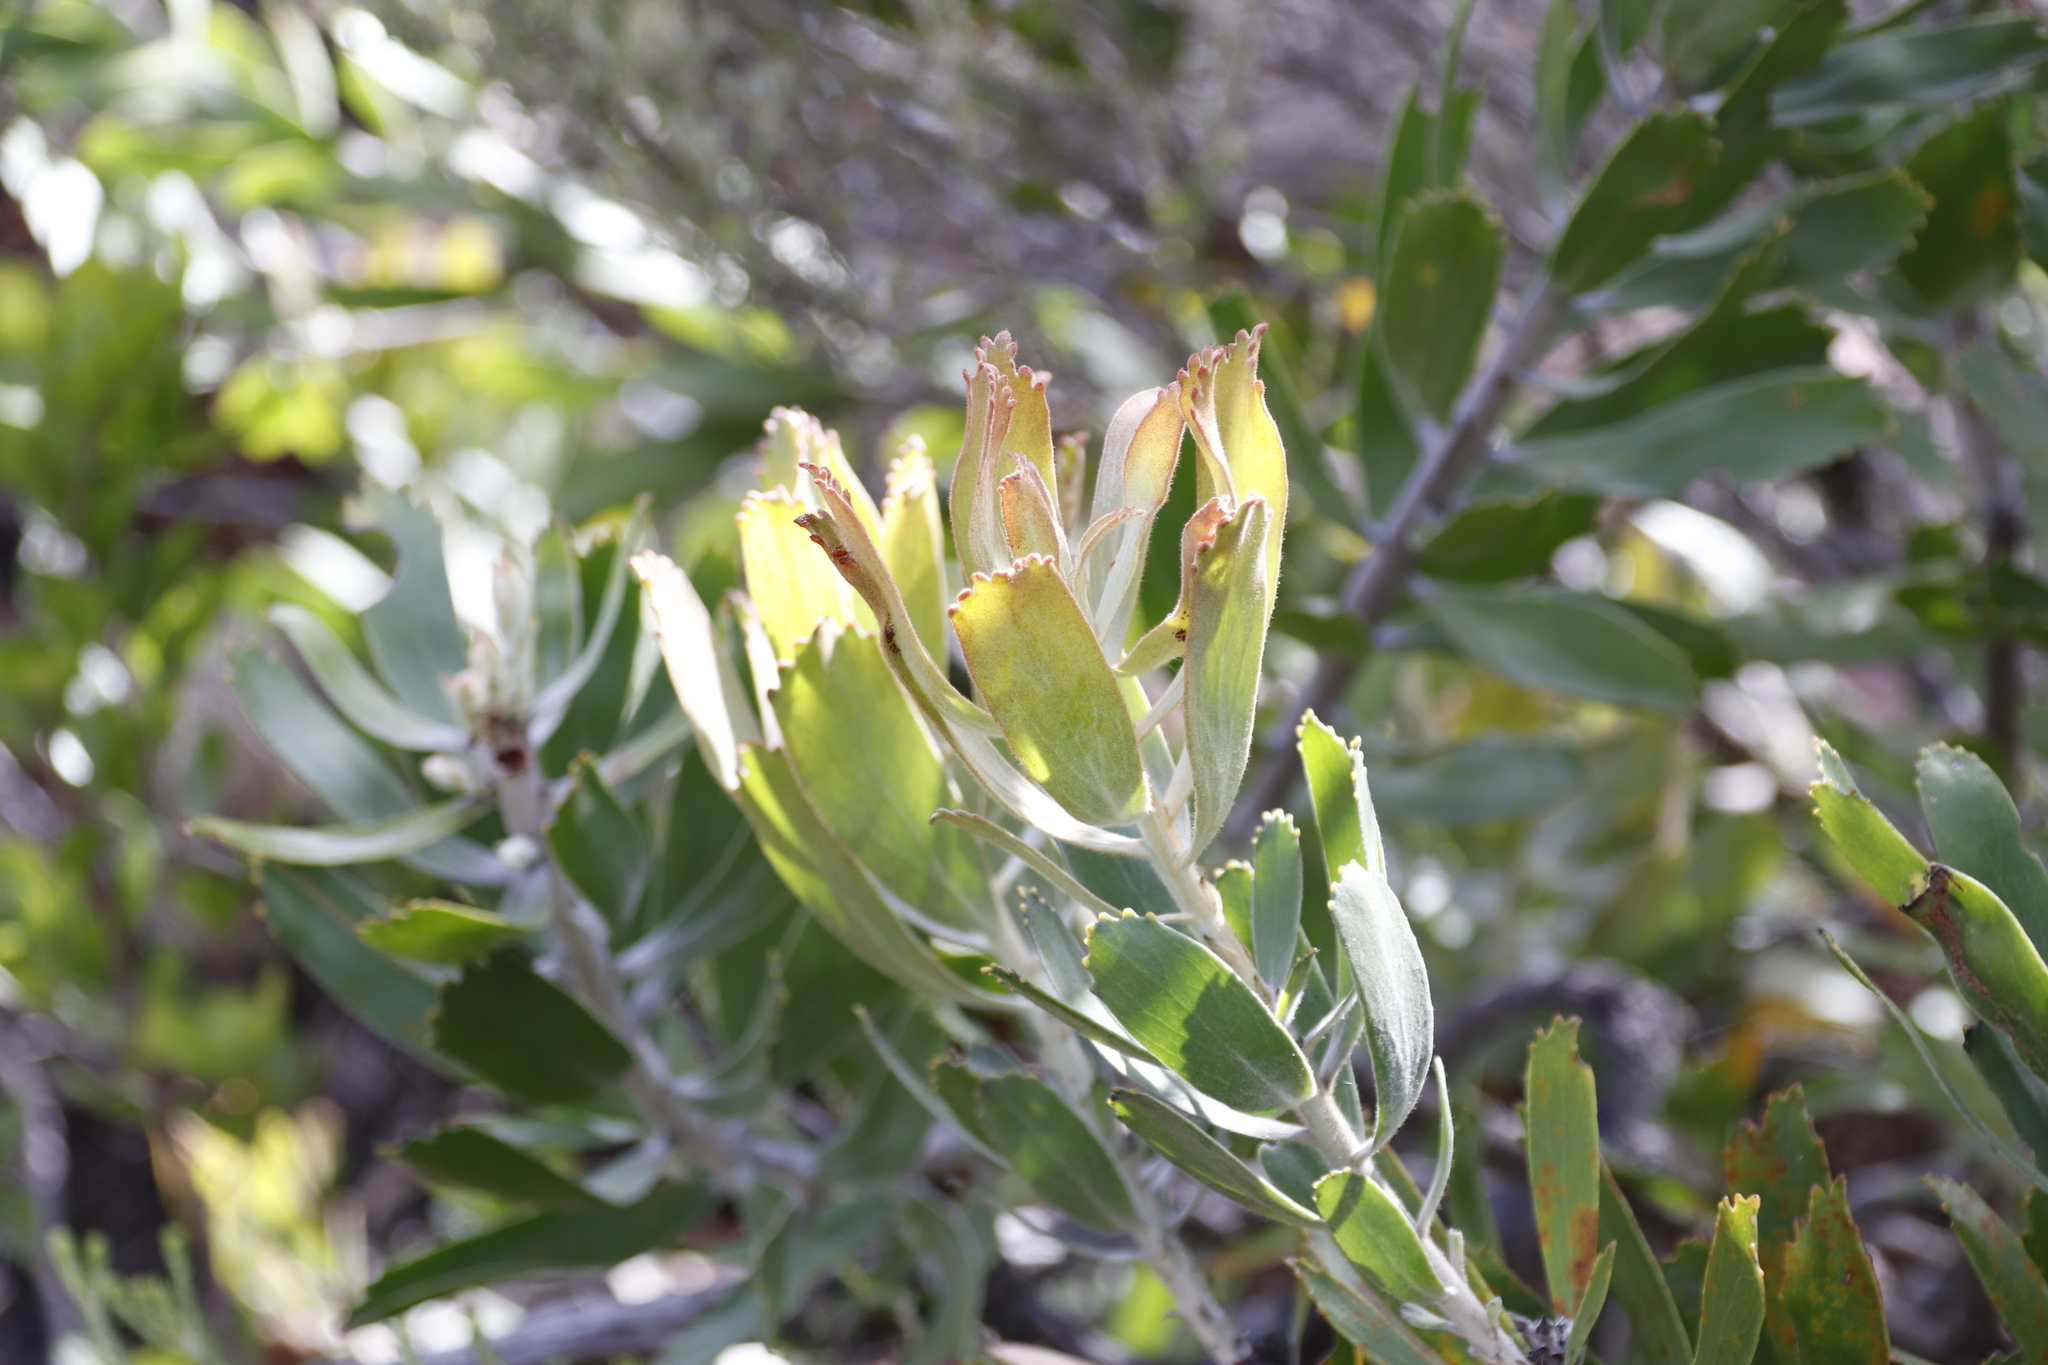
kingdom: Plantae
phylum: Tracheophyta
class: Magnoliopsida
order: Proteales
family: Proteaceae
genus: Leucospermum
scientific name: Leucospermum cuneiforme
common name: Common pincushion
